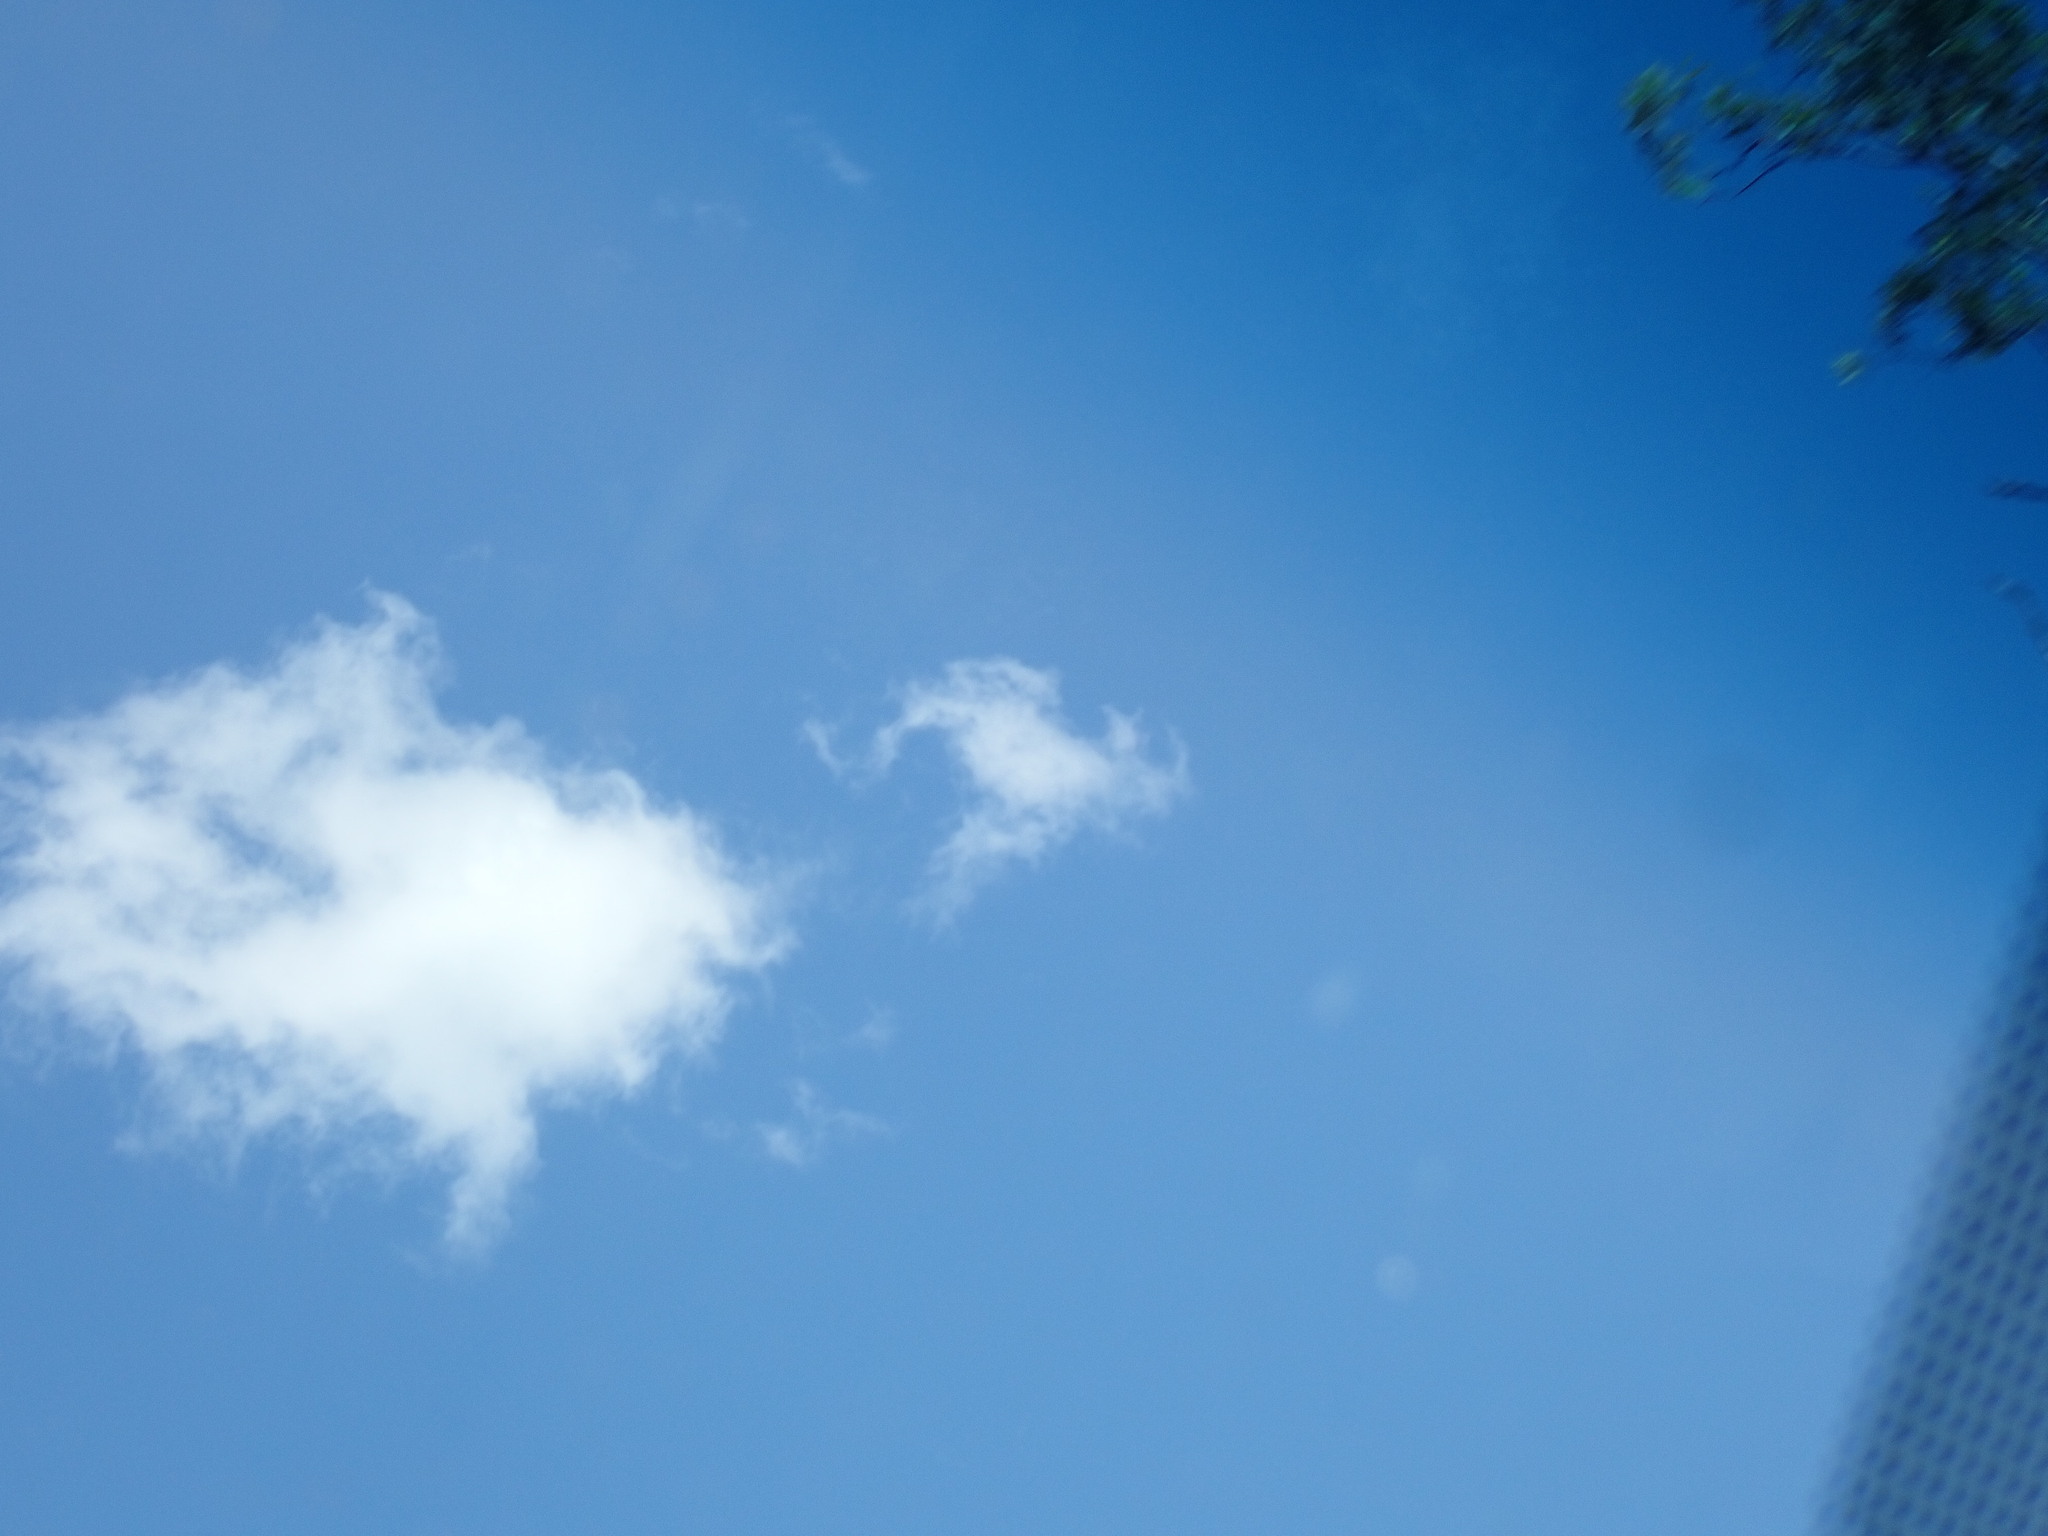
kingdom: Animalia
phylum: Chordata
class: Aves
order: Accipitriformes
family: Accipitridae
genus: Aquila
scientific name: Aquila audax
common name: Wedge-tailed eagle
